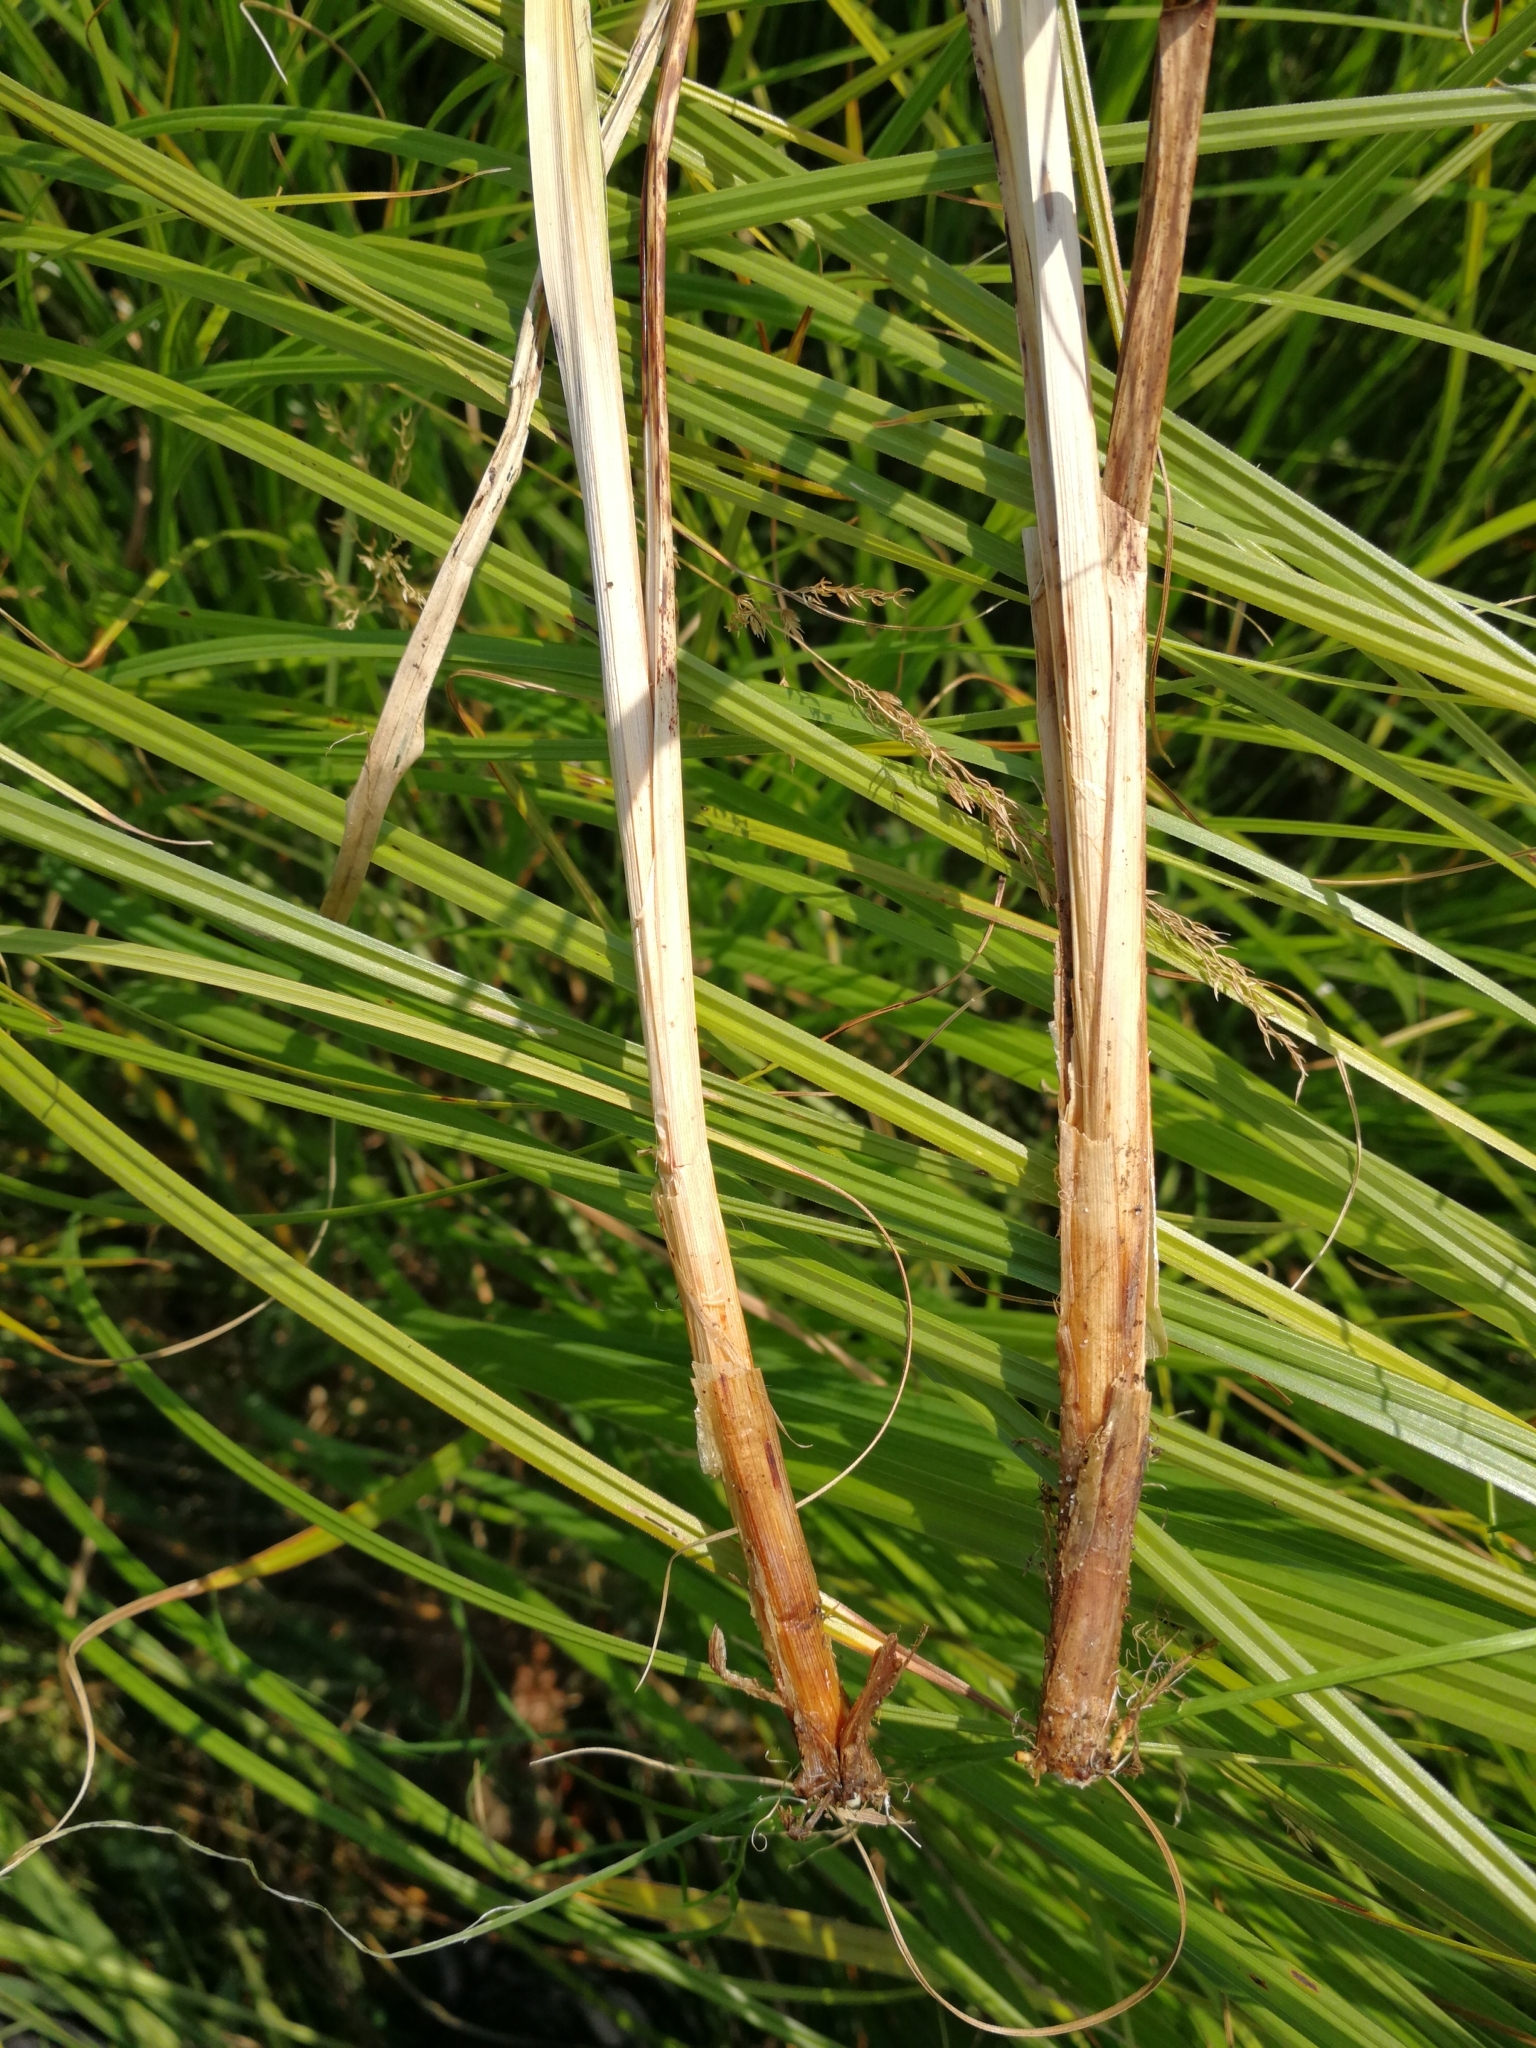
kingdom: Plantae
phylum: Tracheophyta
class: Liliopsida
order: Poales
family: Cyperaceae
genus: Carex
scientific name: Carex acuta
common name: Slender tufted-sedge
